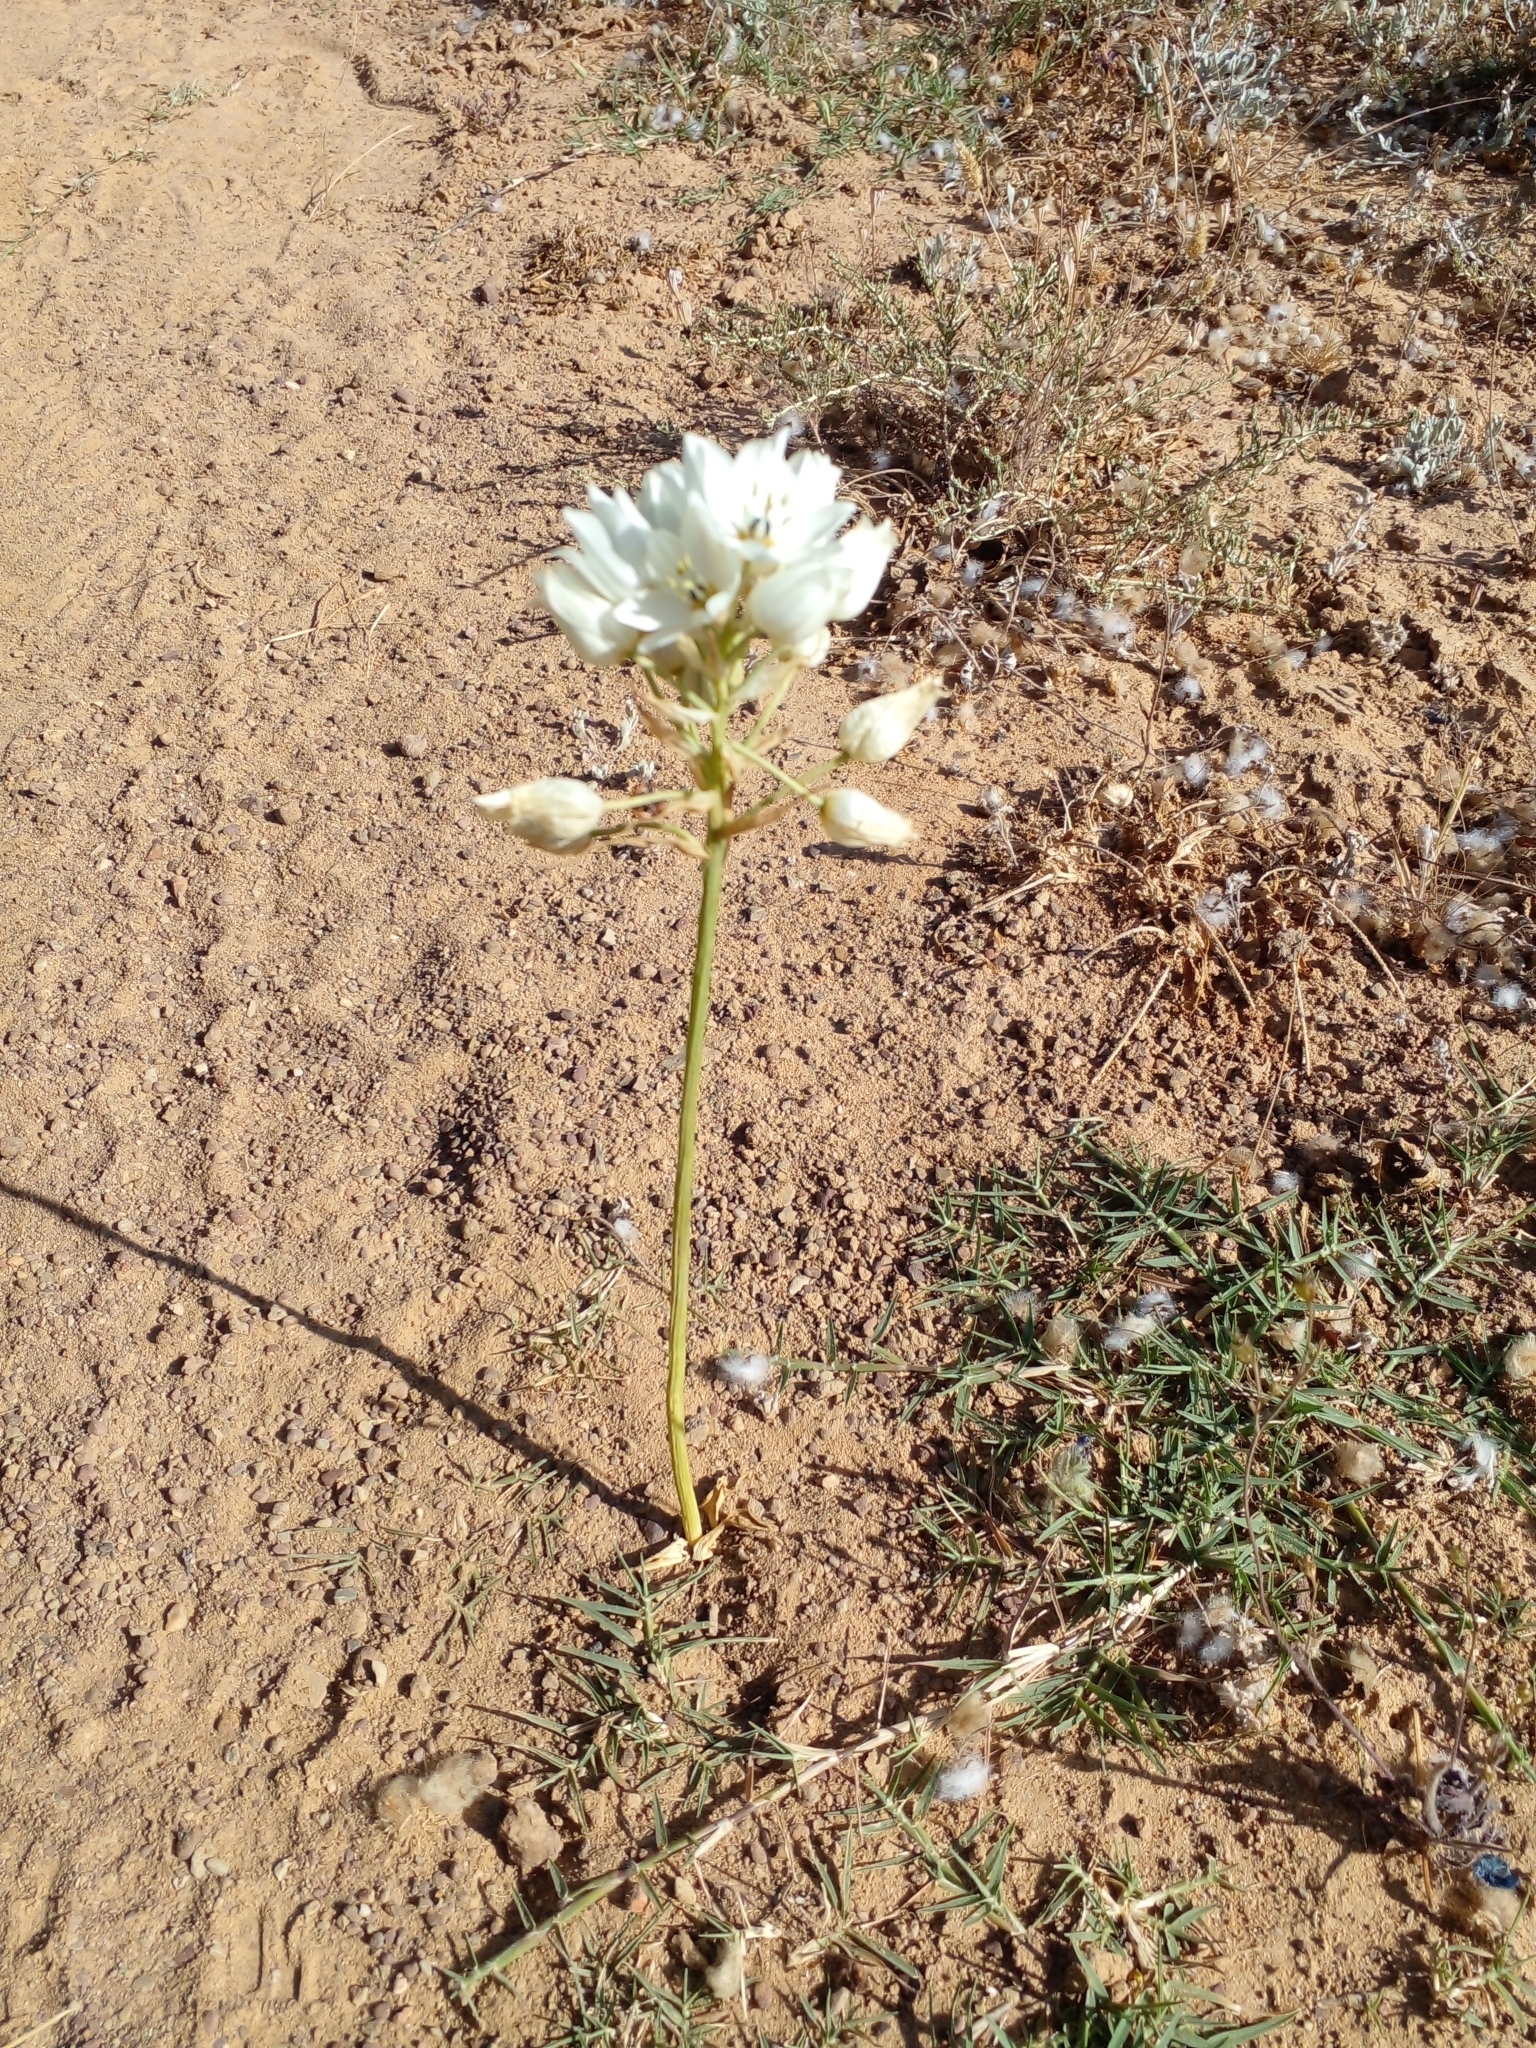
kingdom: Plantae
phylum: Tracheophyta
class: Liliopsida
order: Asparagales
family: Asparagaceae
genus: Ornithogalum
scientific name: Ornithogalum thyrsoides
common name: Chincherinchee
